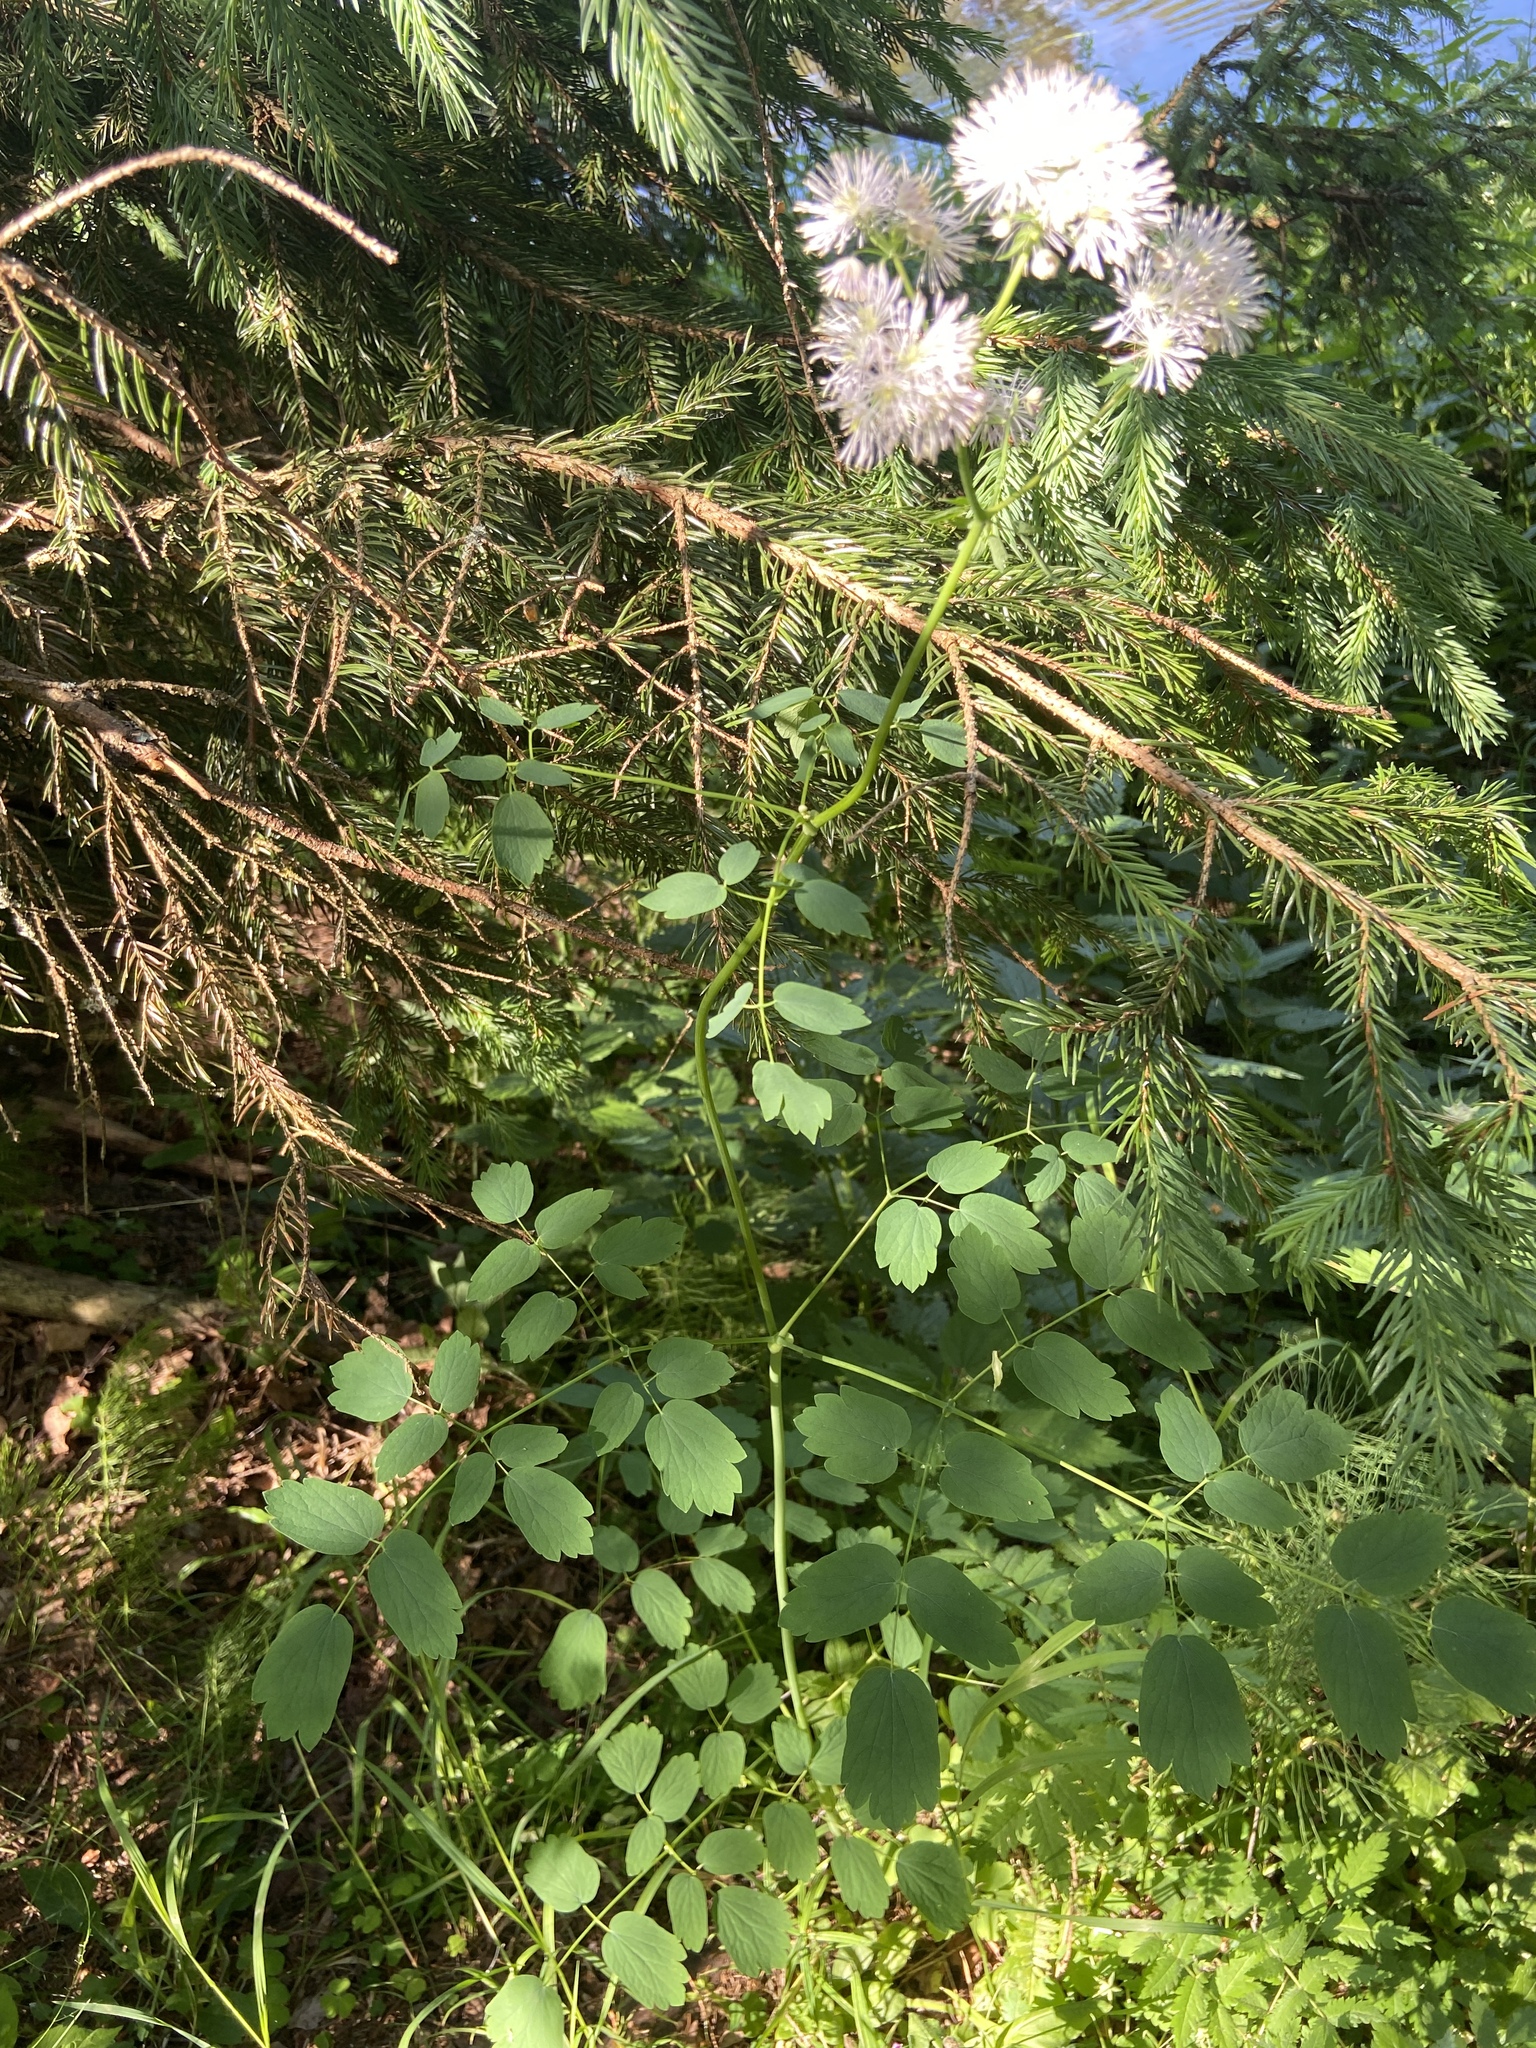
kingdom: Plantae
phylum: Tracheophyta
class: Magnoliopsida
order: Ranunculales
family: Ranunculaceae
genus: Thalictrum
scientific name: Thalictrum aquilegiifolium
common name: French meadow-rue
